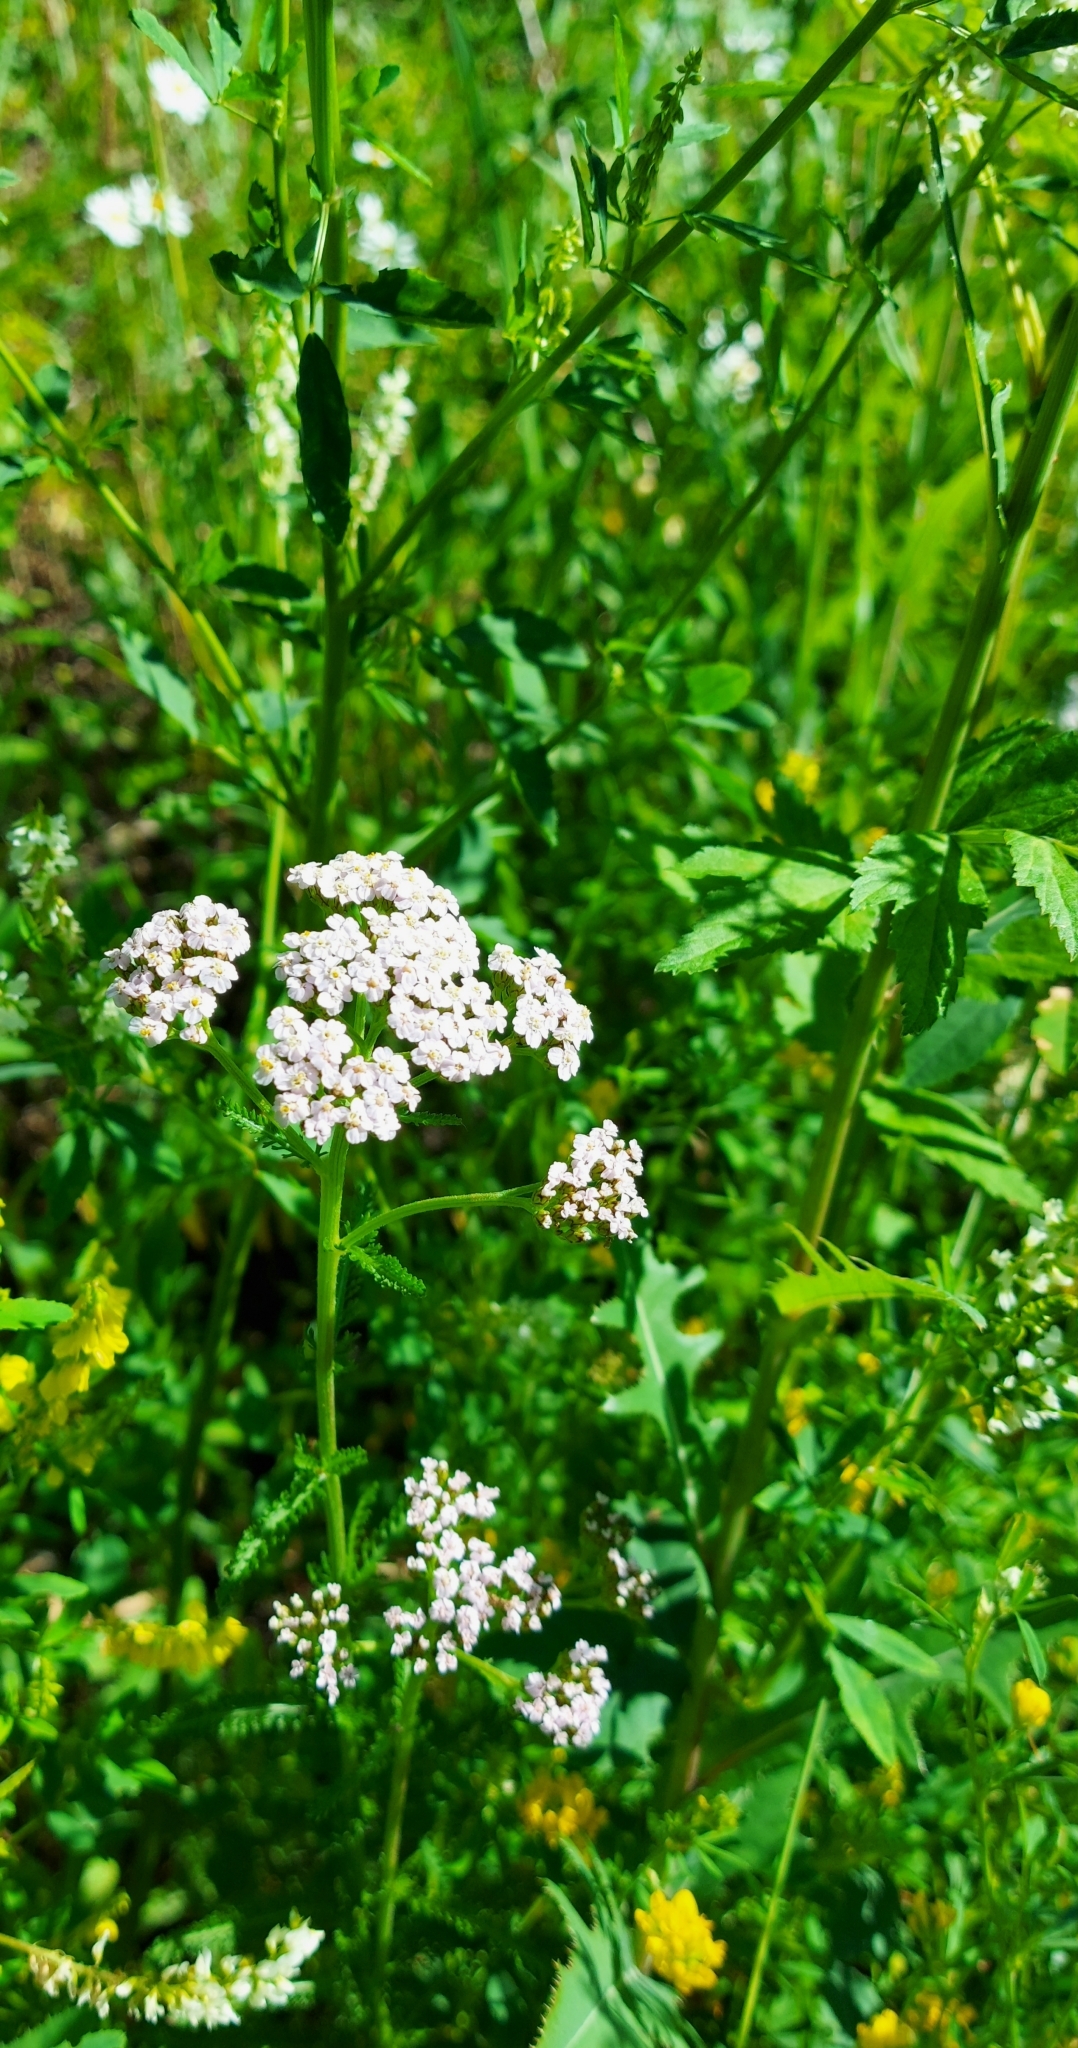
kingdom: Plantae
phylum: Tracheophyta
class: Magnoliopsida
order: Asterales
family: Asteraceae
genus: Achillea
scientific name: Achillea asiatica
